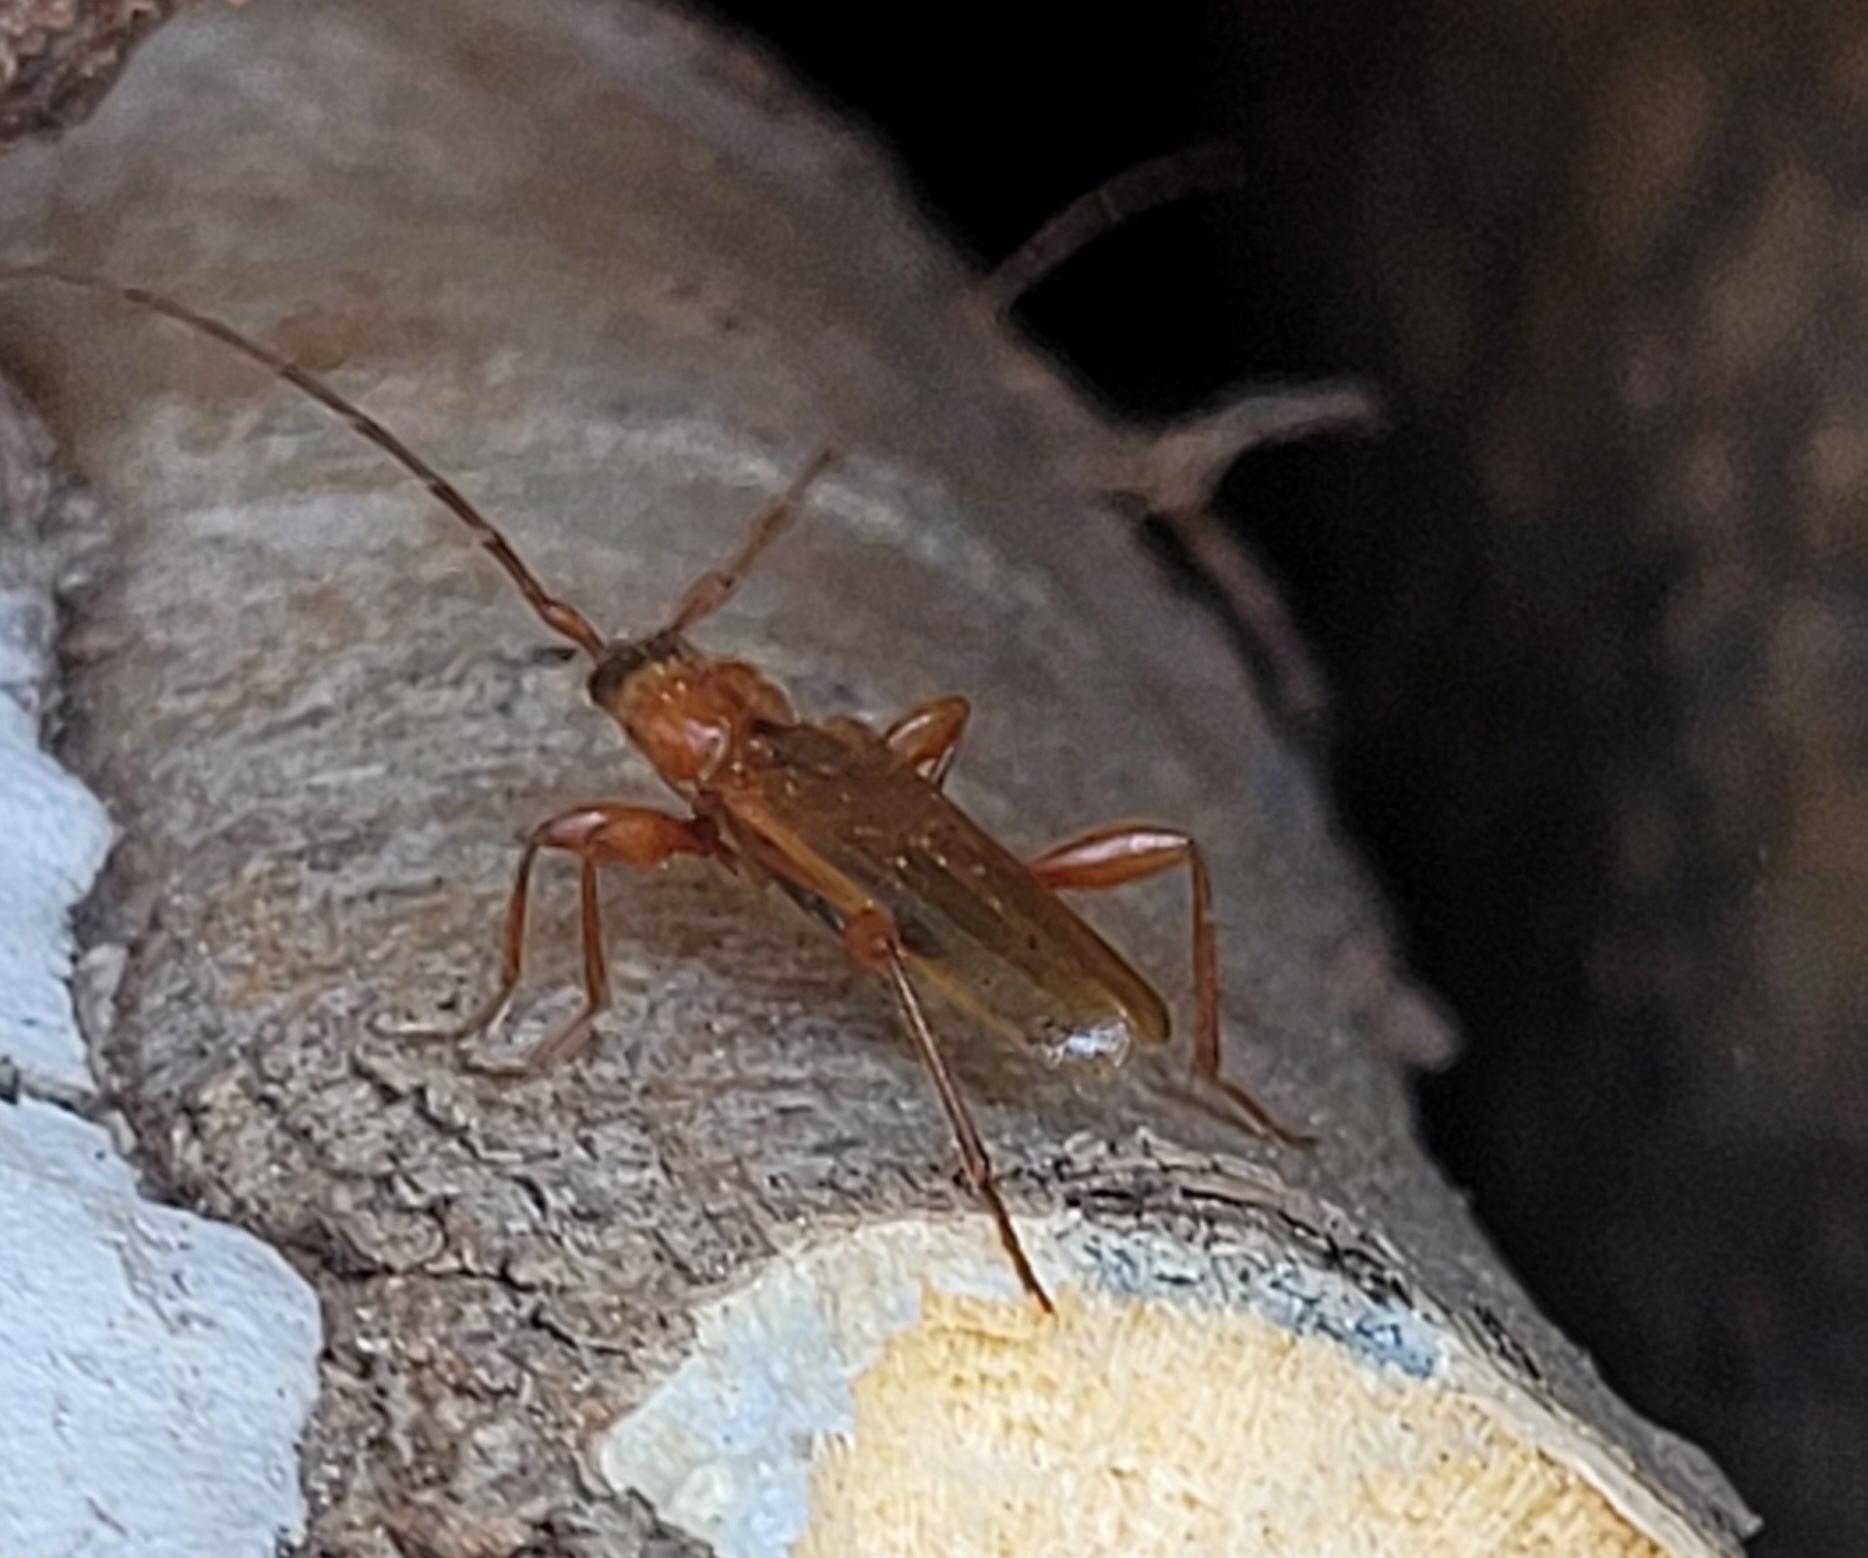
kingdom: Animalia
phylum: Arthropoda
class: Insecta
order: Coleoptera
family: Cerambycidae
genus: Phymatodes
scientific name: Phymatodes testaceus
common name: Long-horned beetle
